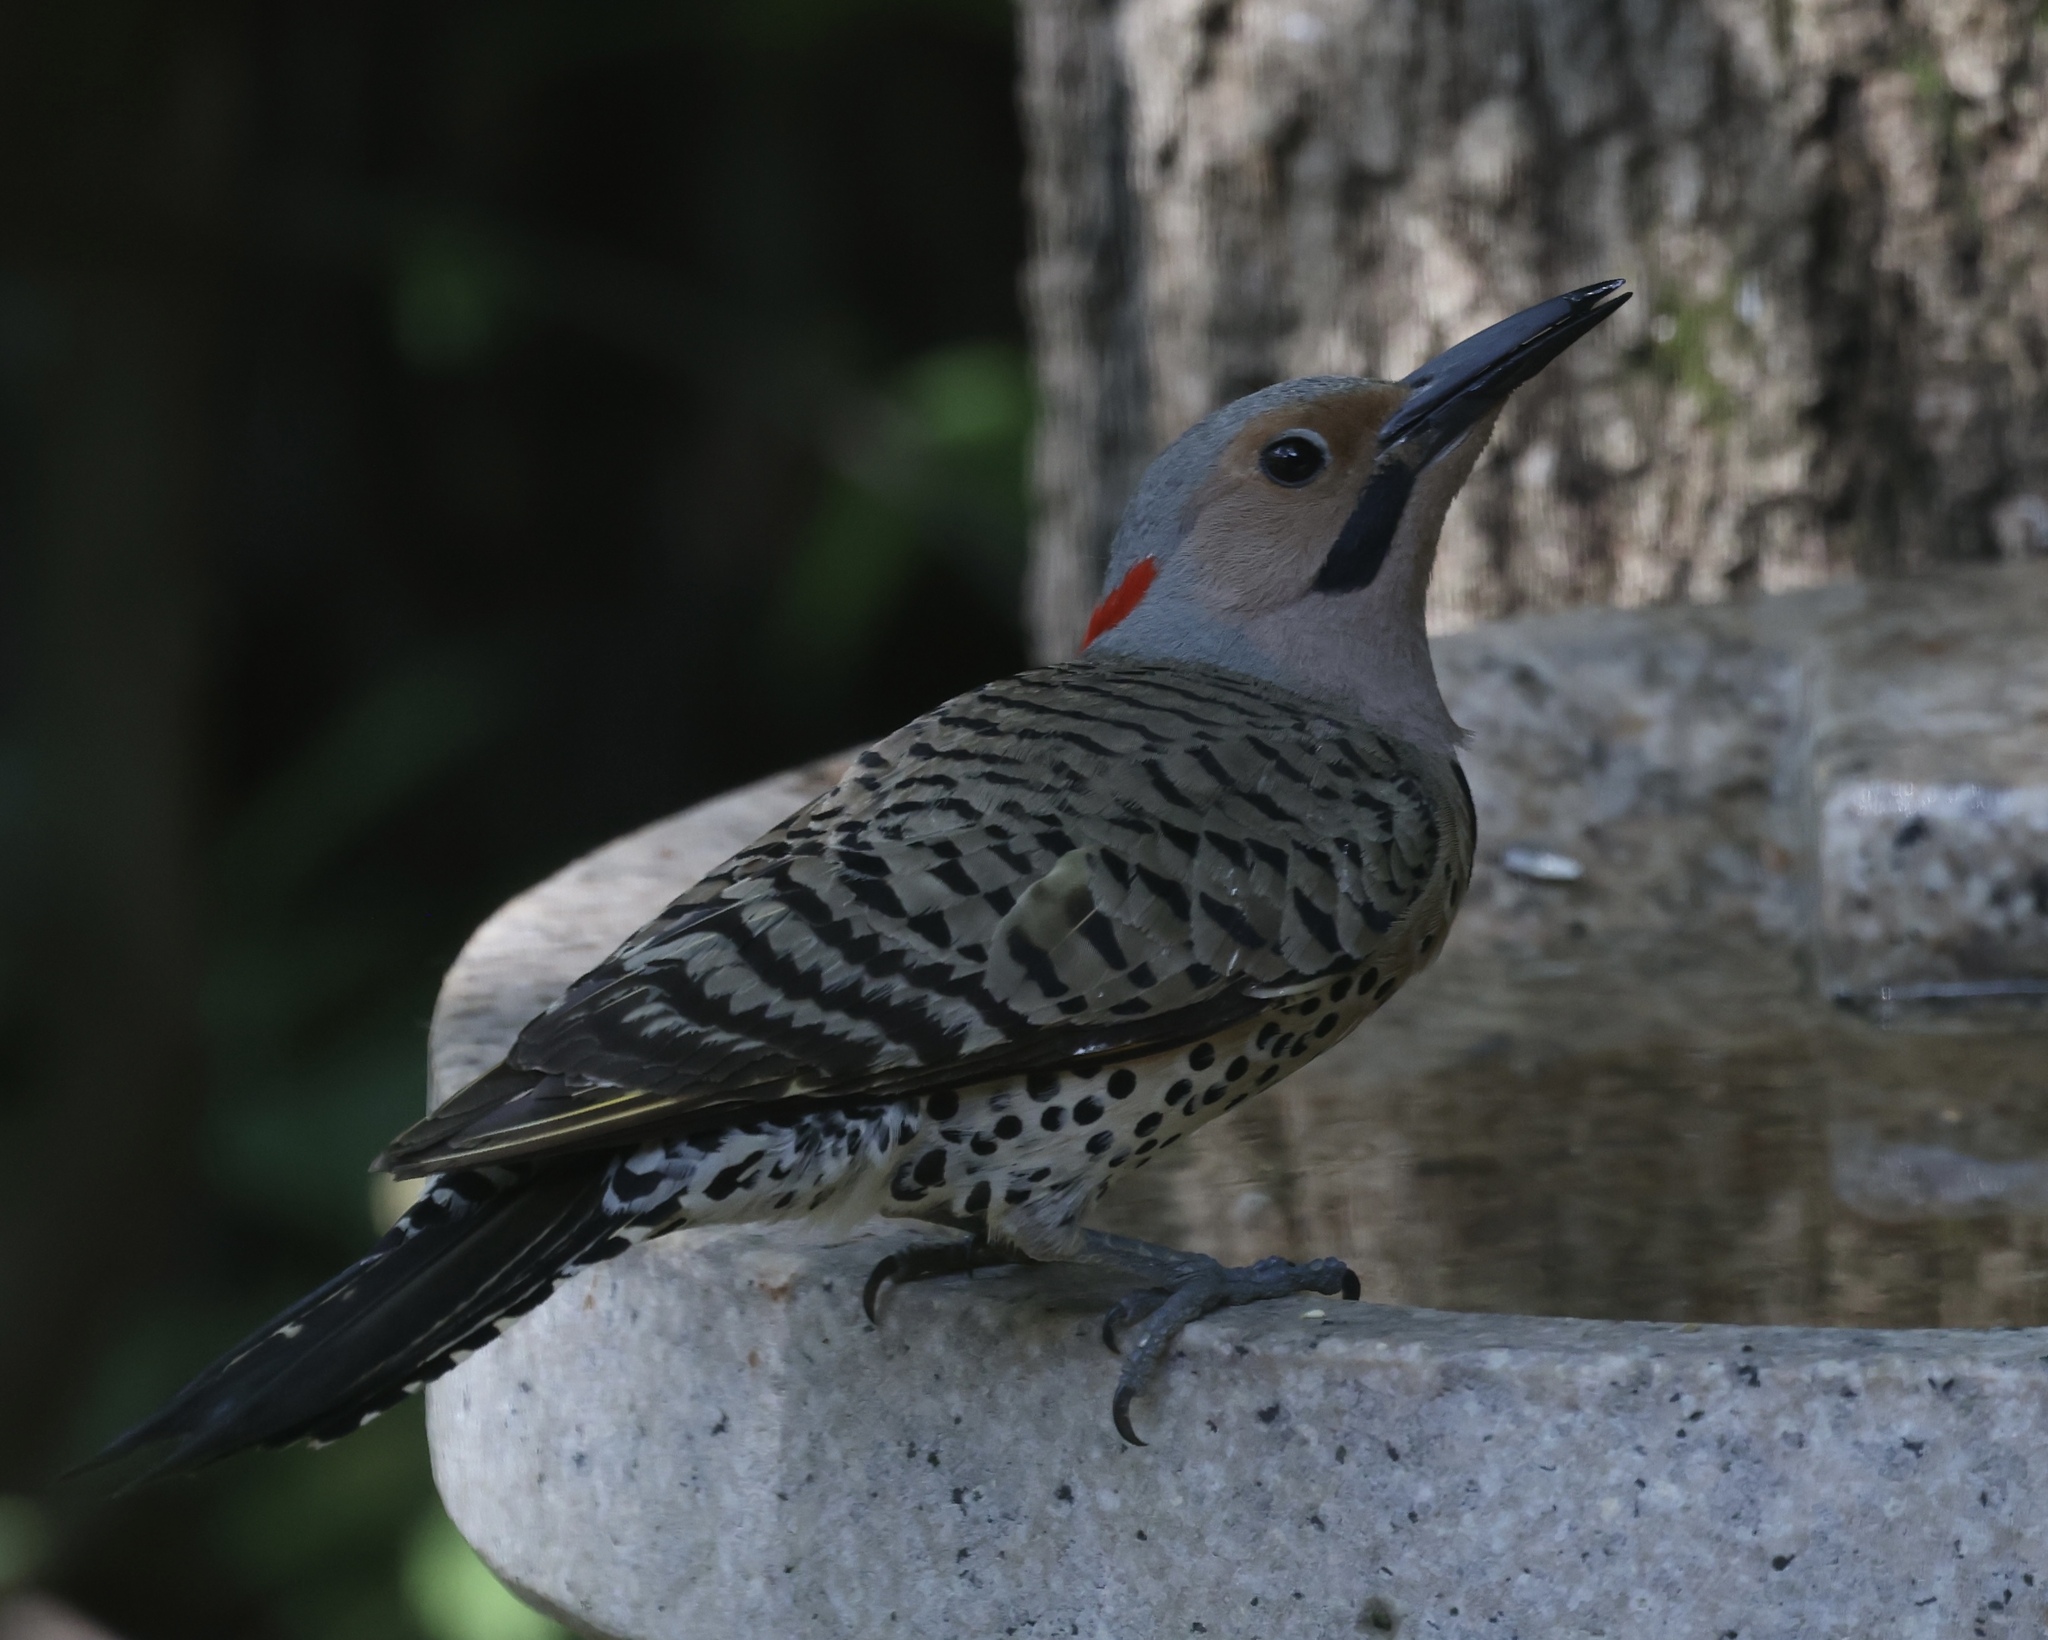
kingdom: Animalia
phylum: Chordata
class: Aves
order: Piciformes
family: Picidae
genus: Colaptes
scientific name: Colaptes auratus
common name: Northern flicker
